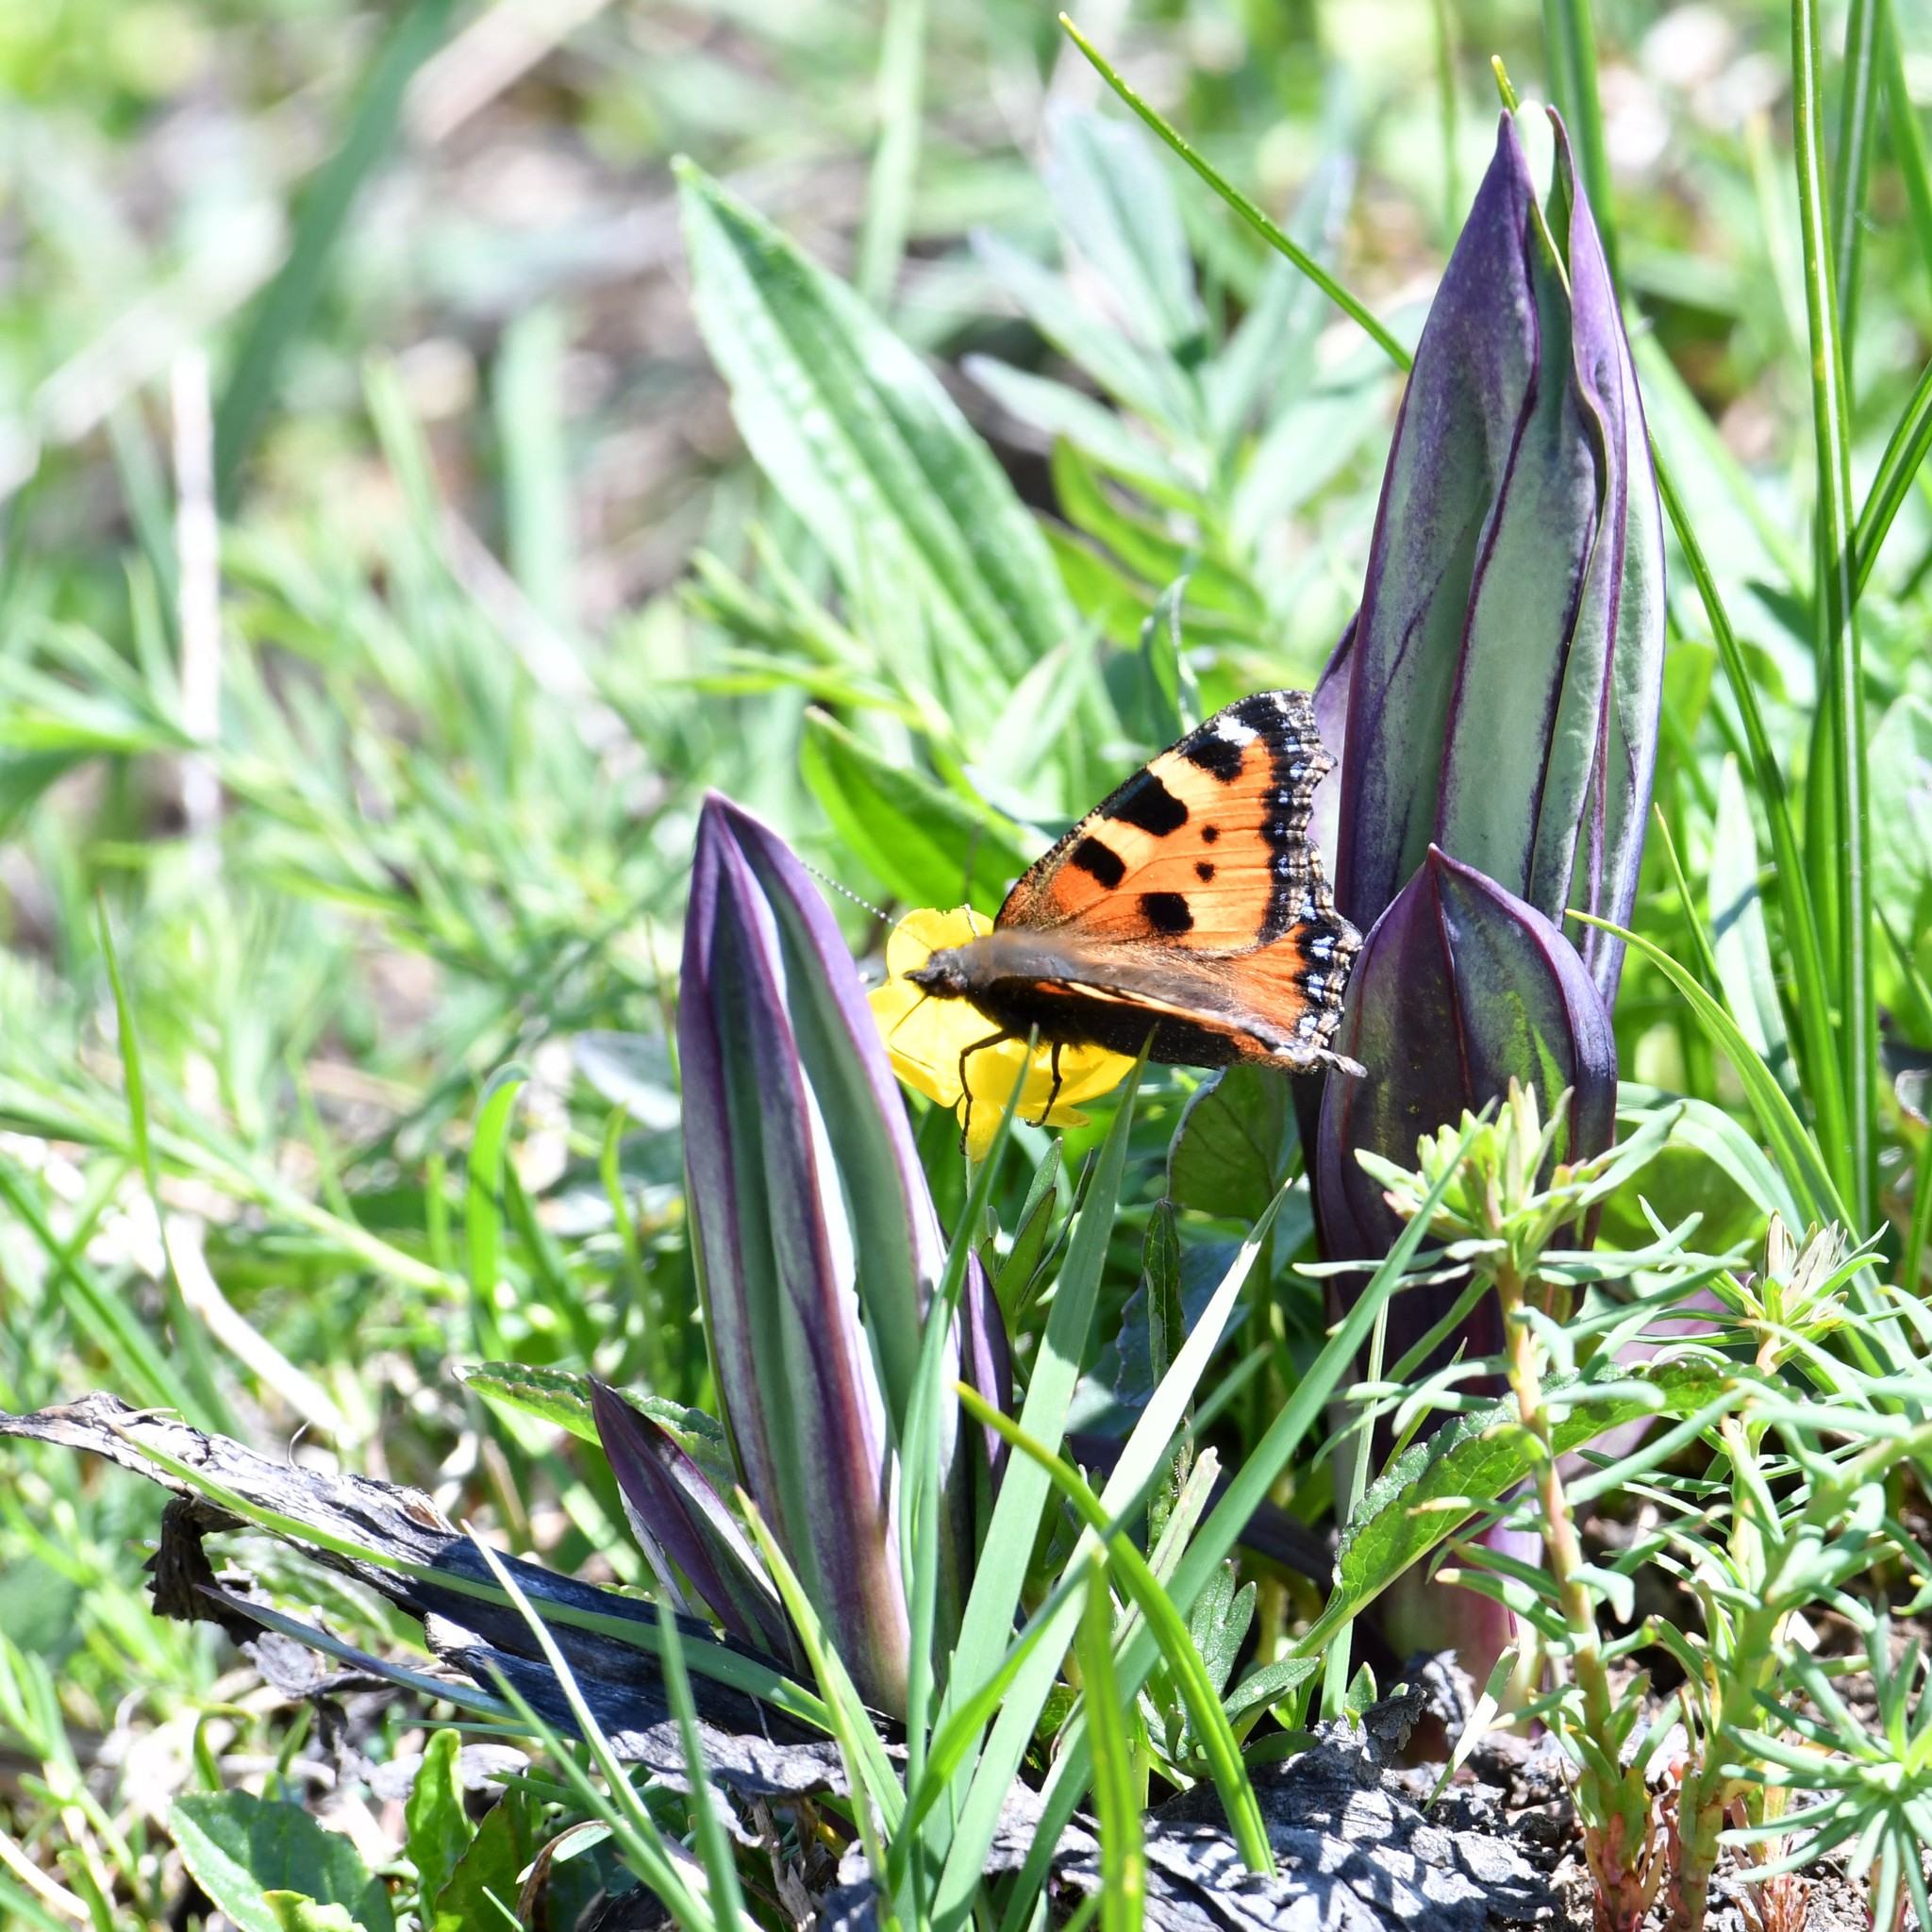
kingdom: Animalia
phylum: Arthropoda
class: Insecta
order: Lepidoptera
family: Nymphalidae
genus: Aglais
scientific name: Aglais urticae
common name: Small tortoiseshell
